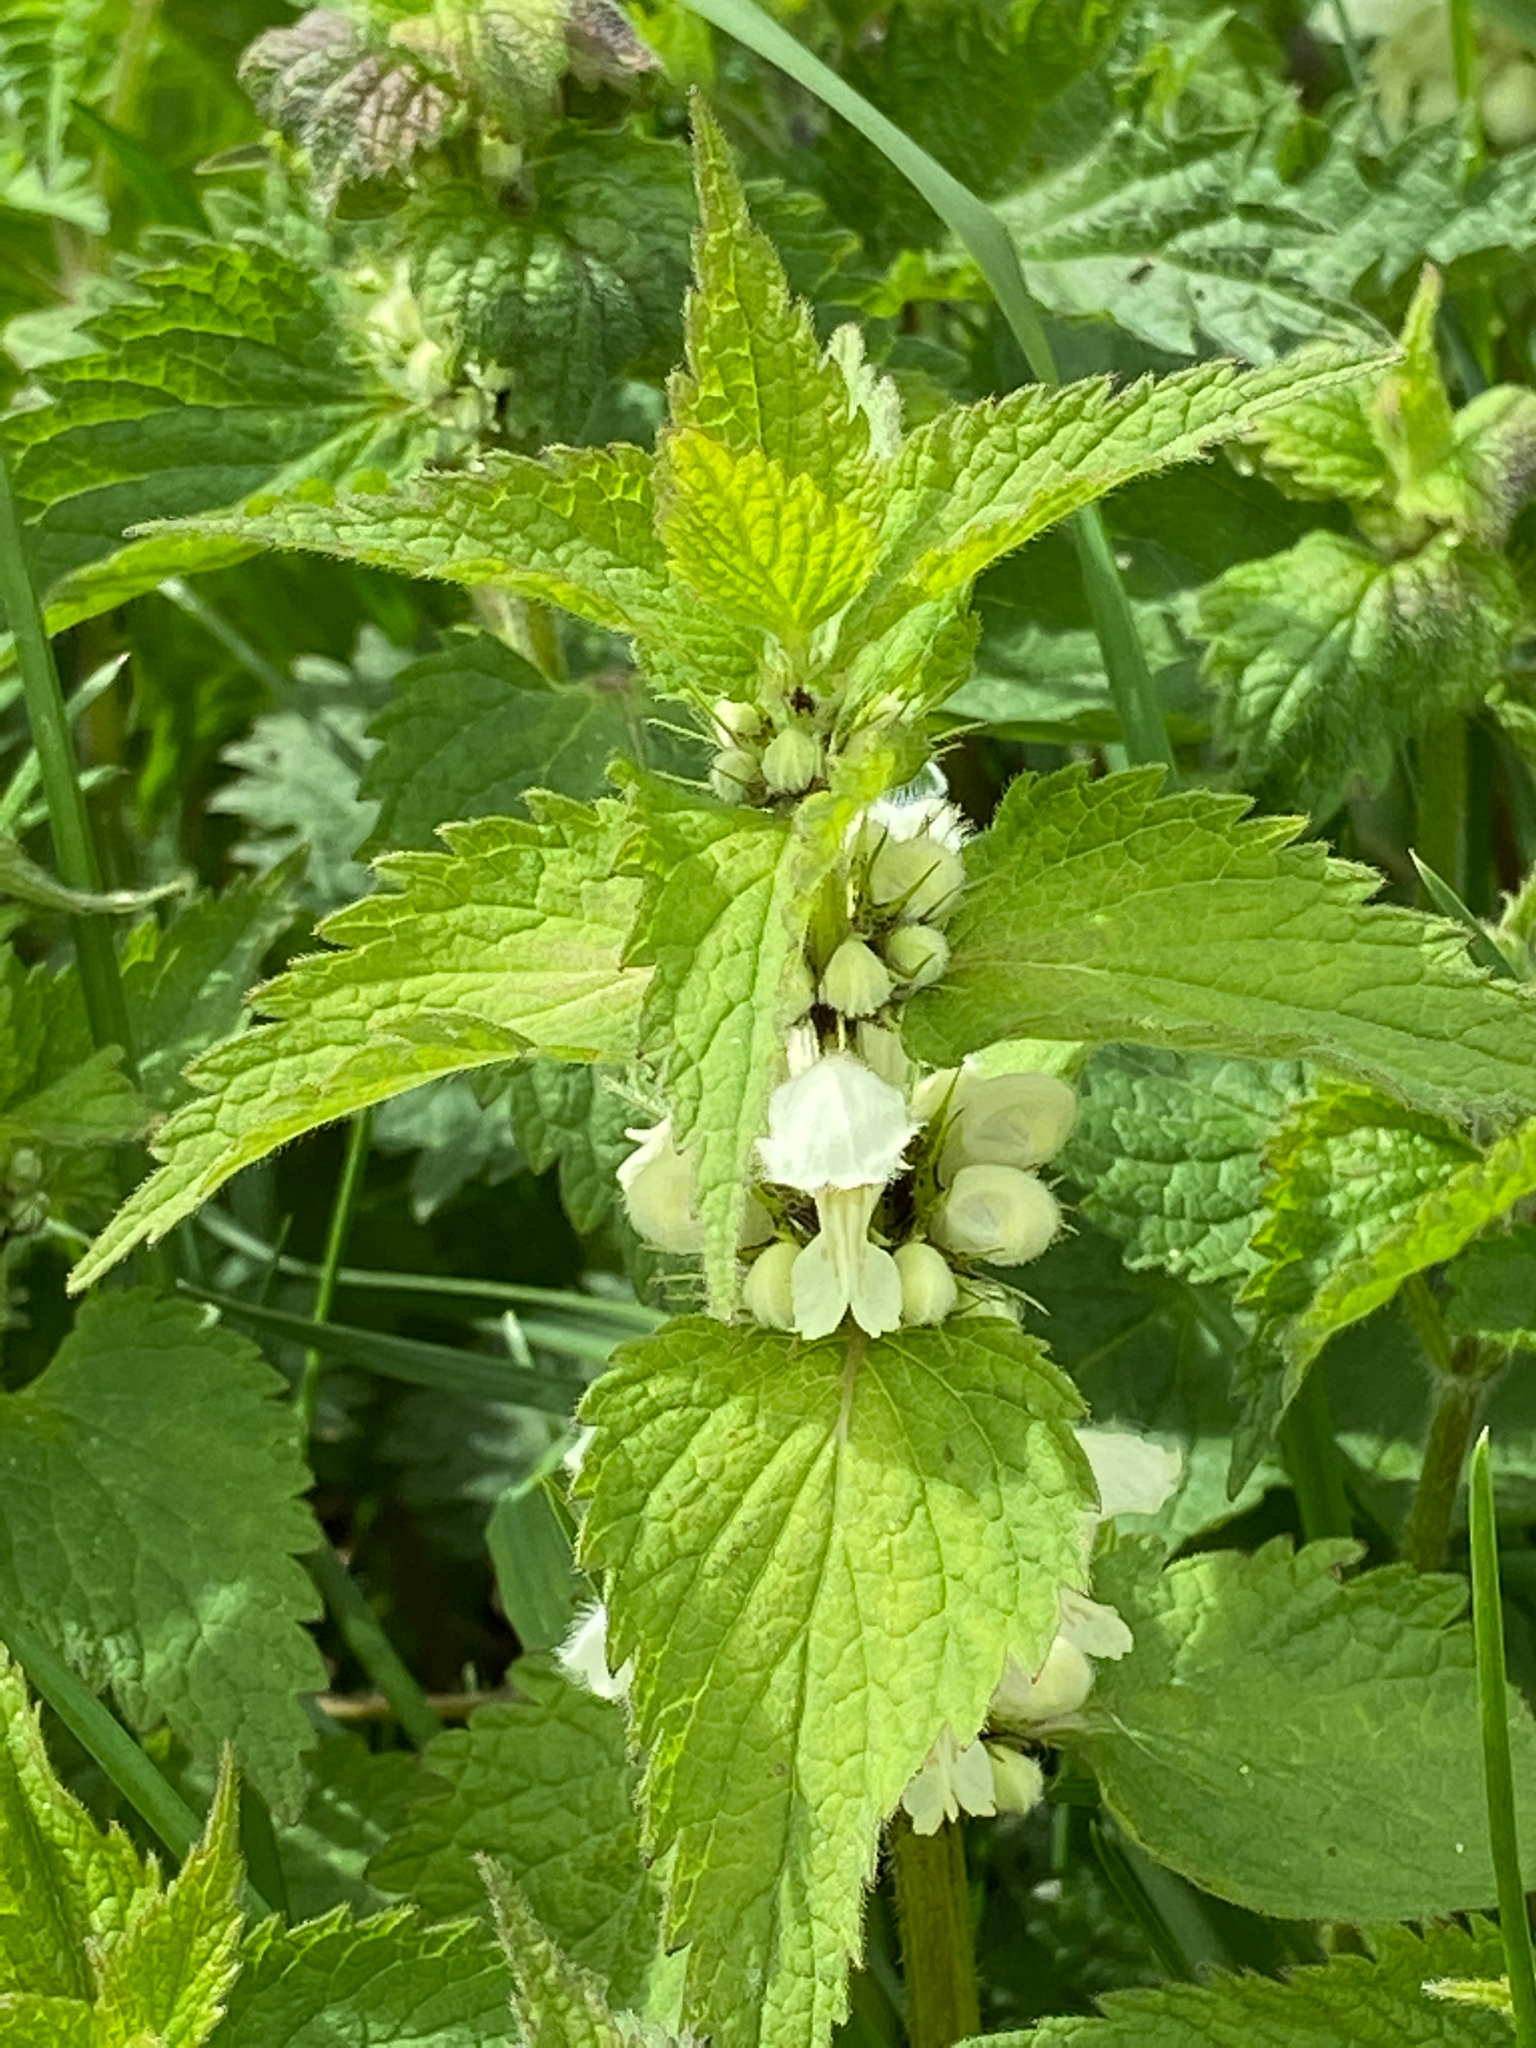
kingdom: Plantae
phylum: Tracheophyta
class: Magnoliopsida
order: Lamiales
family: Lamiaceae
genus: Lamium
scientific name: Lamium album
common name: White dead-nettle
